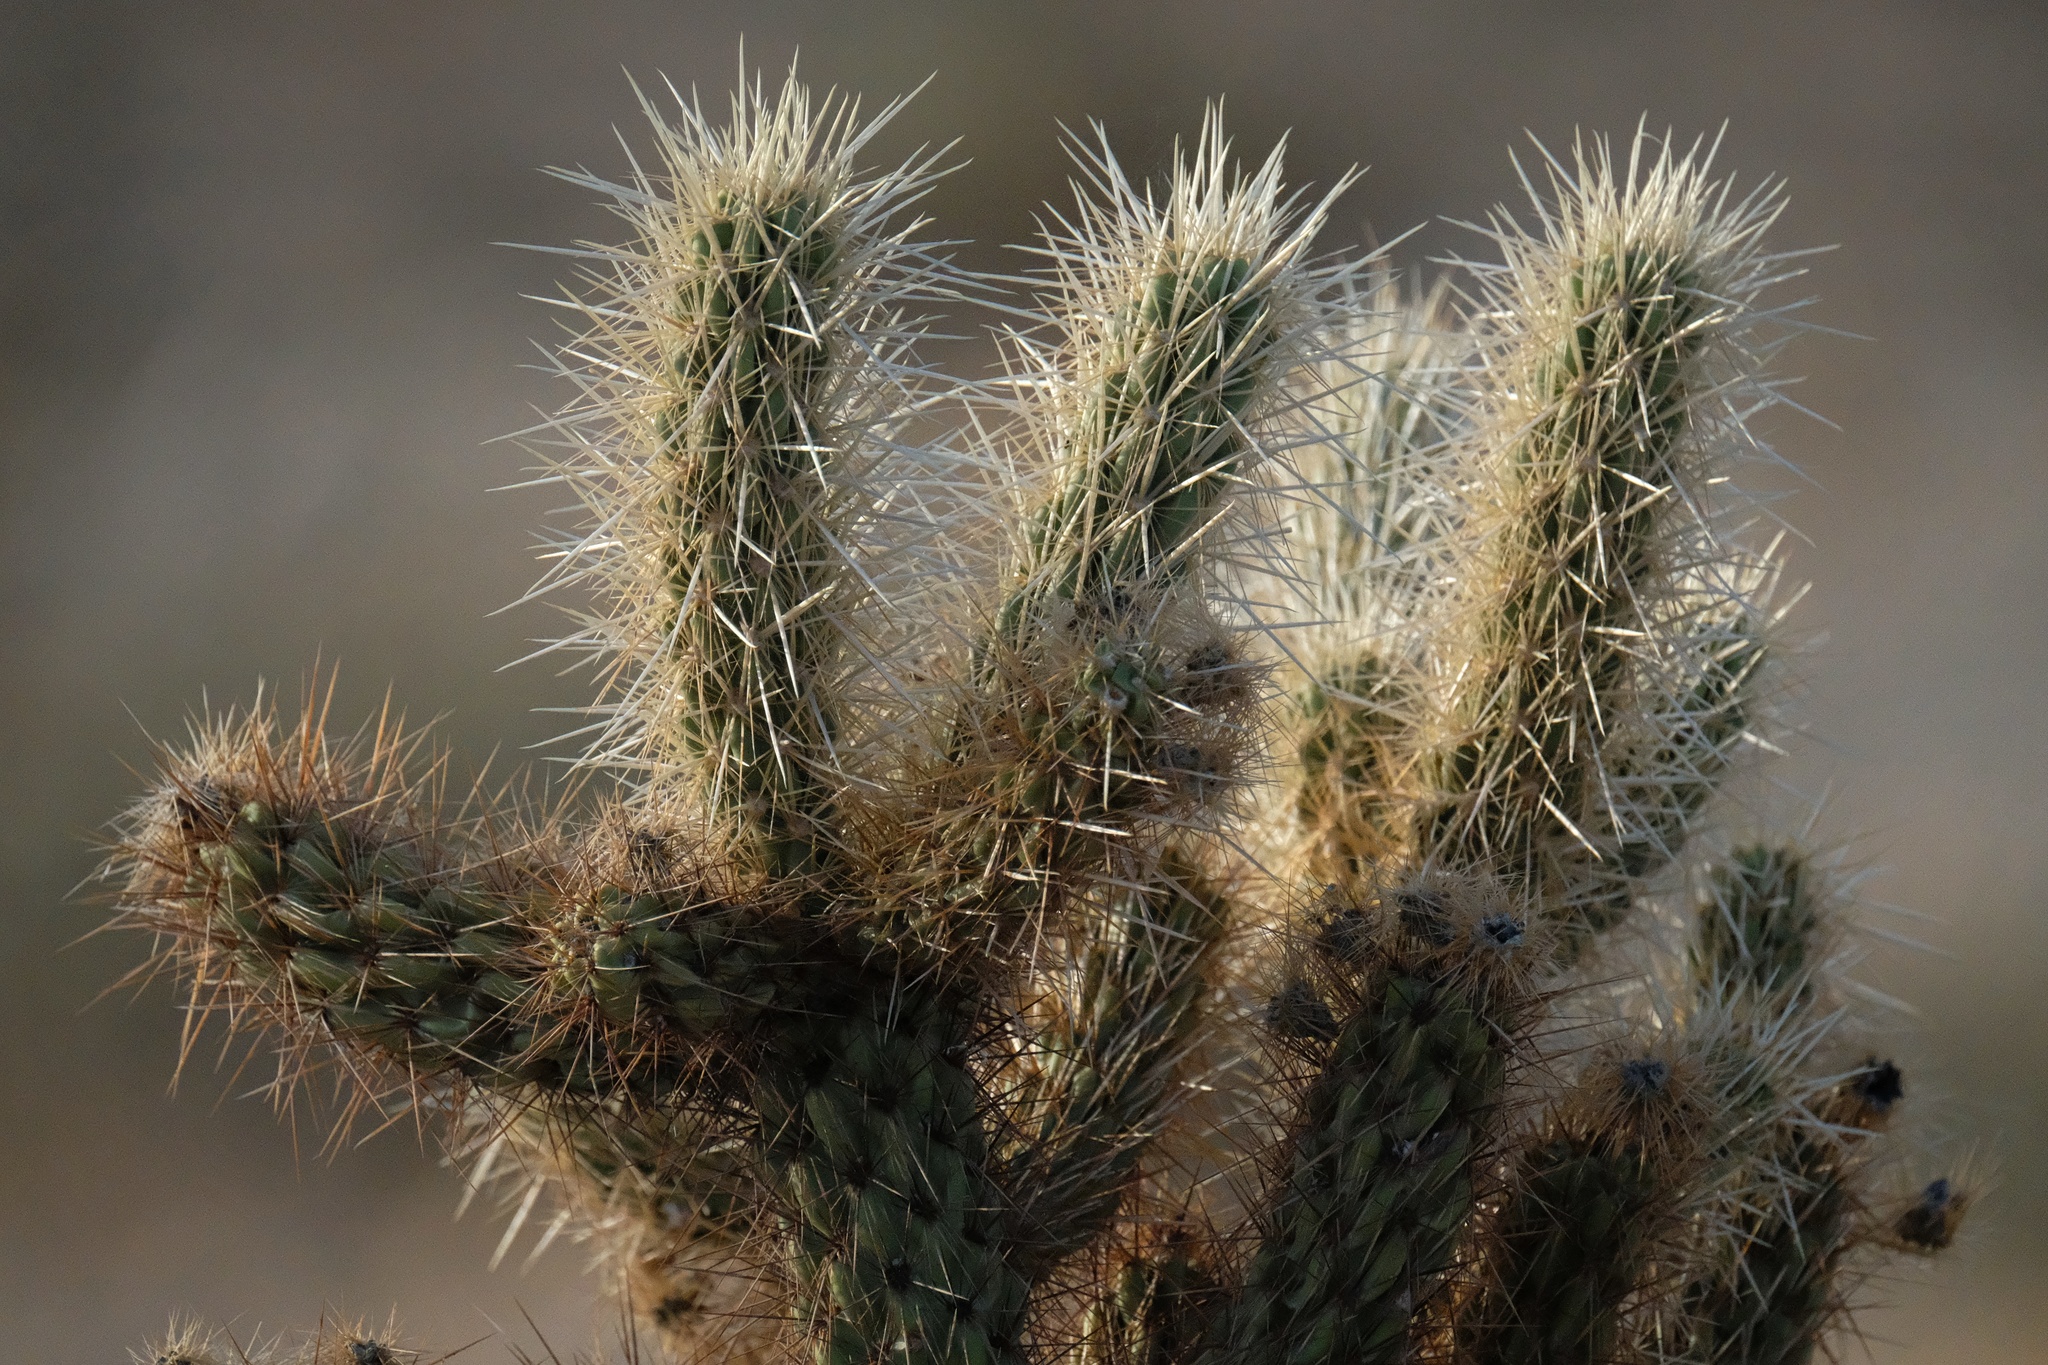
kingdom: Plantae
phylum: Tracheophyta
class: Magnoliopsida
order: Caryophyllales
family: Cactaceae
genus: Cylindropuntia
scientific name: Cylindropuntia ganderi
